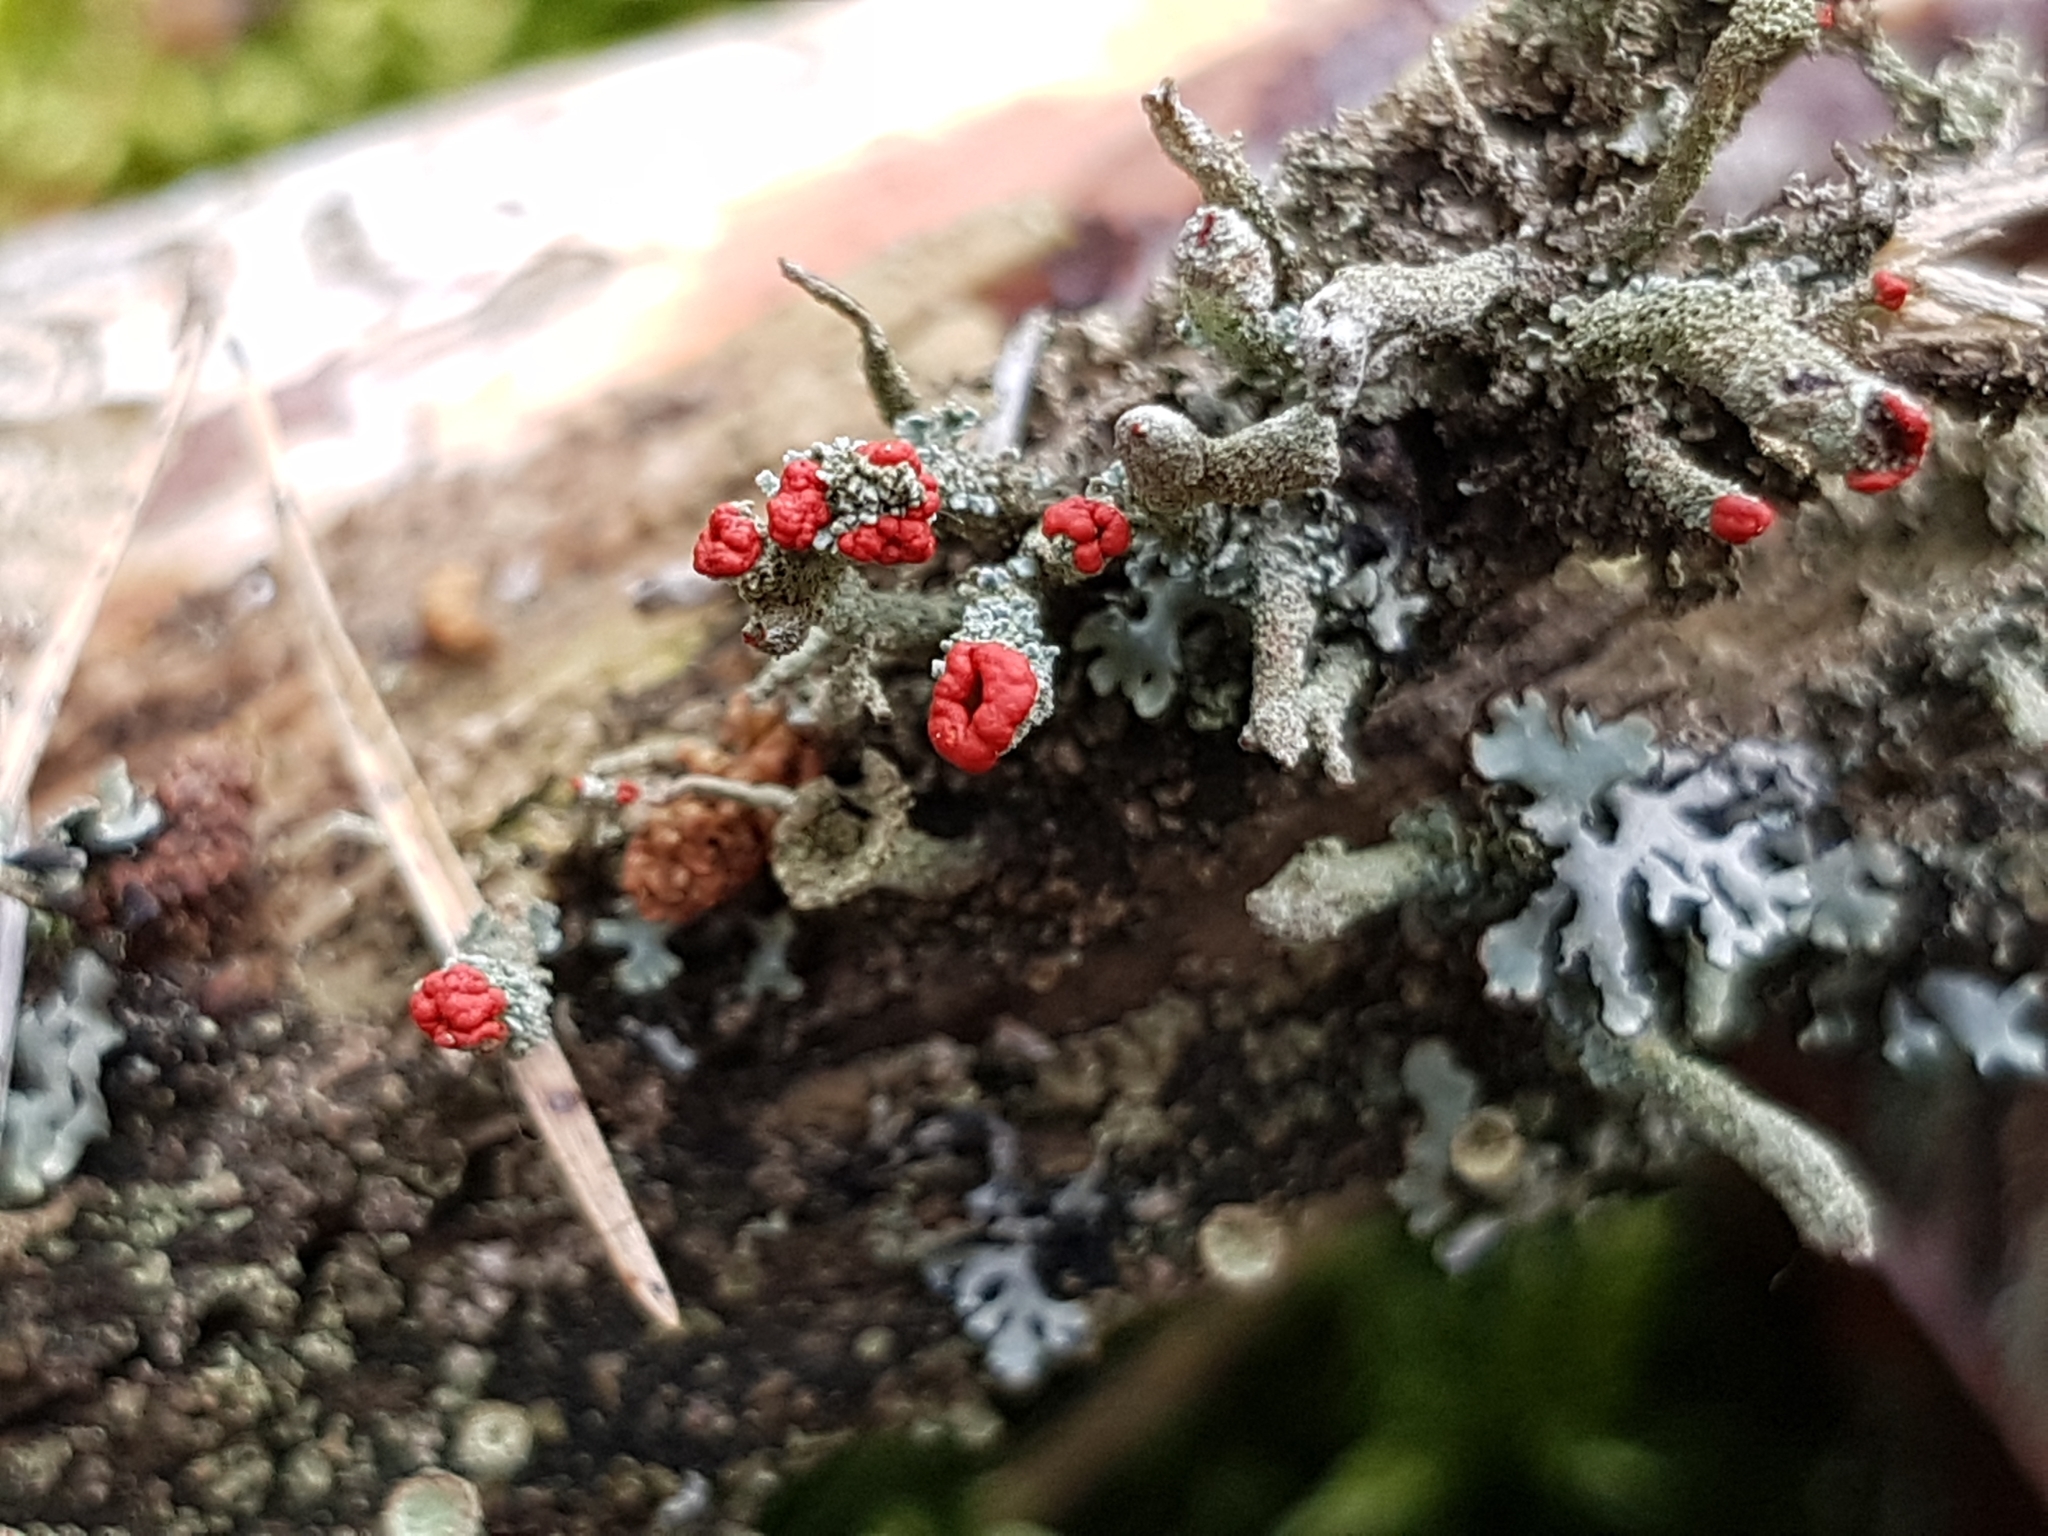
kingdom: Fungi
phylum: Ascomycota
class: Lecanoromycetes
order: Lecanorales
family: Cladoniaceae
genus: Cladonia
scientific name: Cladonia
